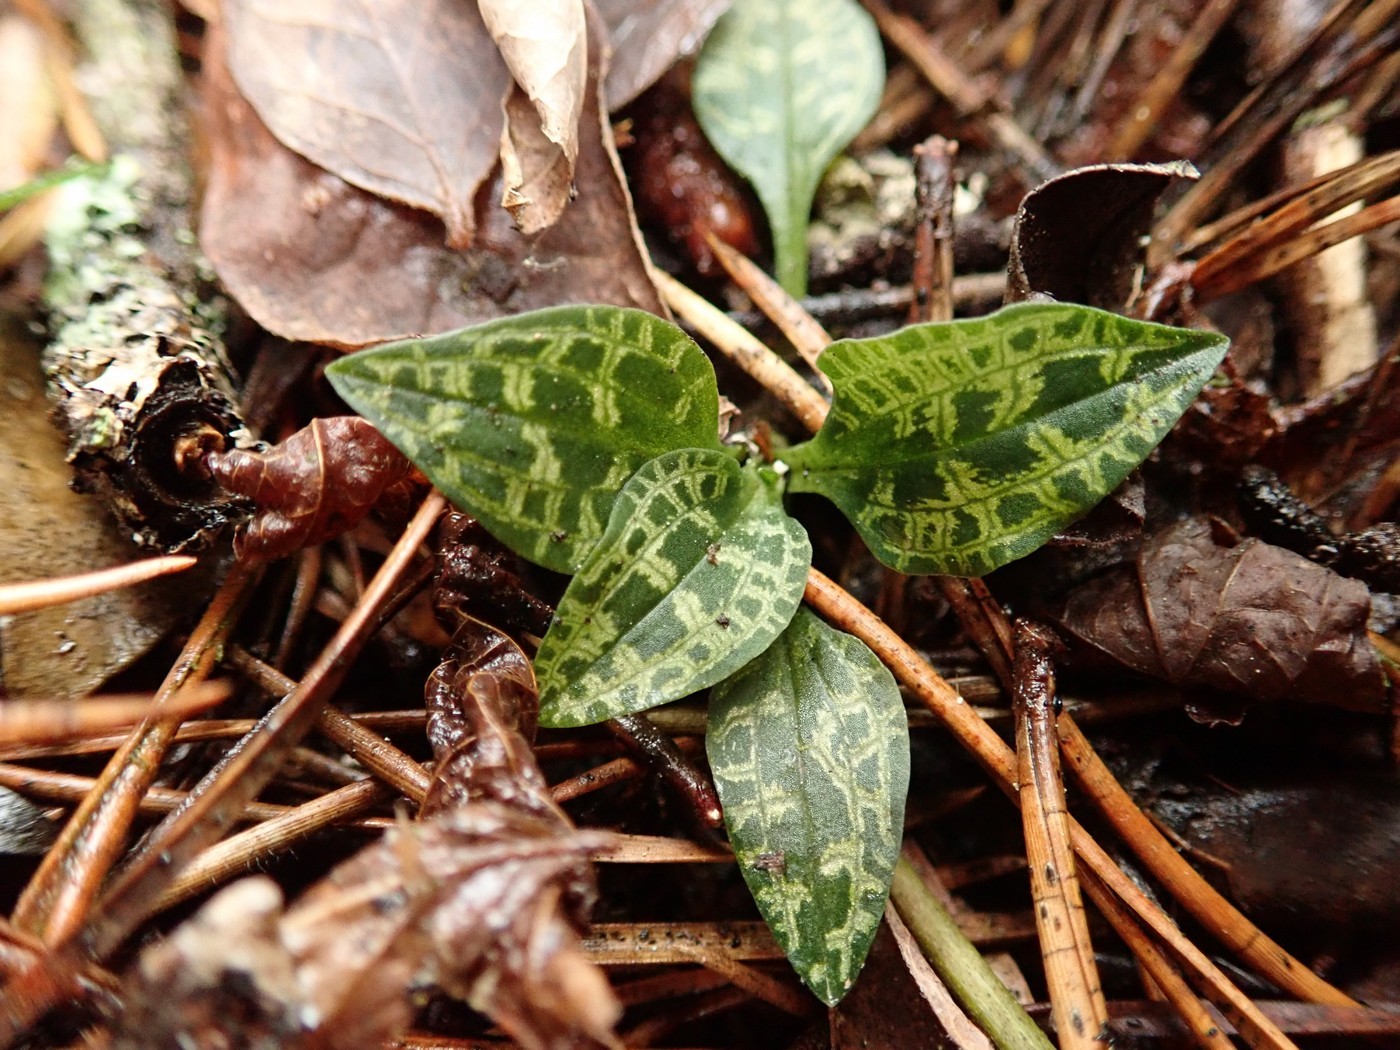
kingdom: Plantae
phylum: Tracheophyta
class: Liliopsida
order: Asparagales
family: Orchidaceae
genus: Goodyera
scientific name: Goodyera repens
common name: Creeping lady's-tresses
